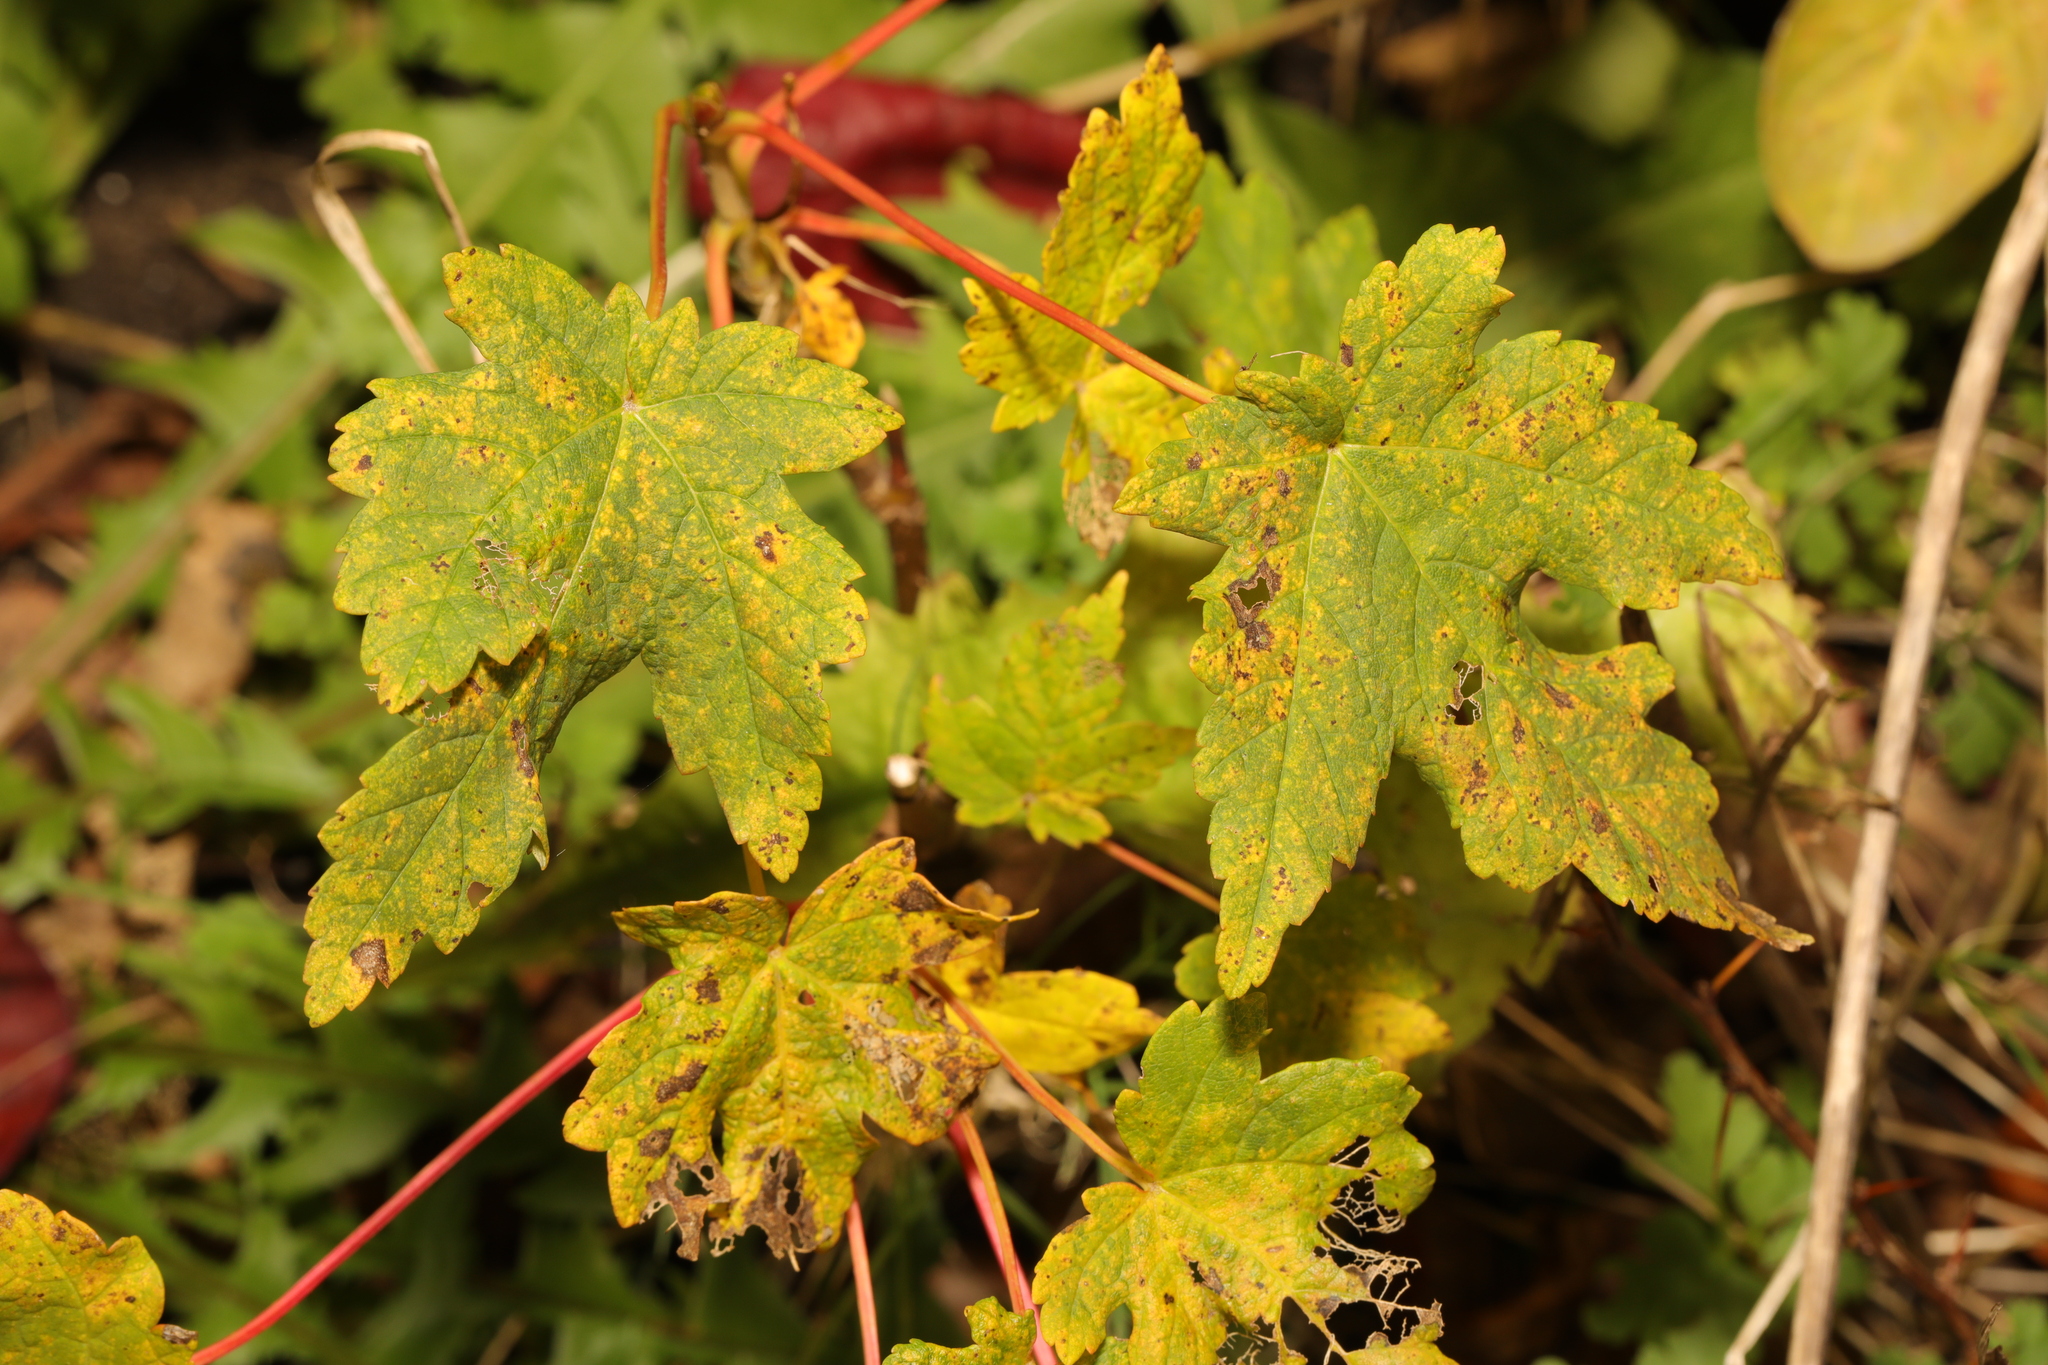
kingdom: Plantae
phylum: Tracheophyta
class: Magnoliopsida
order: Sapindales
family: Sapindaceae
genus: Acer
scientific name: Acer pseudoplatanus
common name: Sycamore
